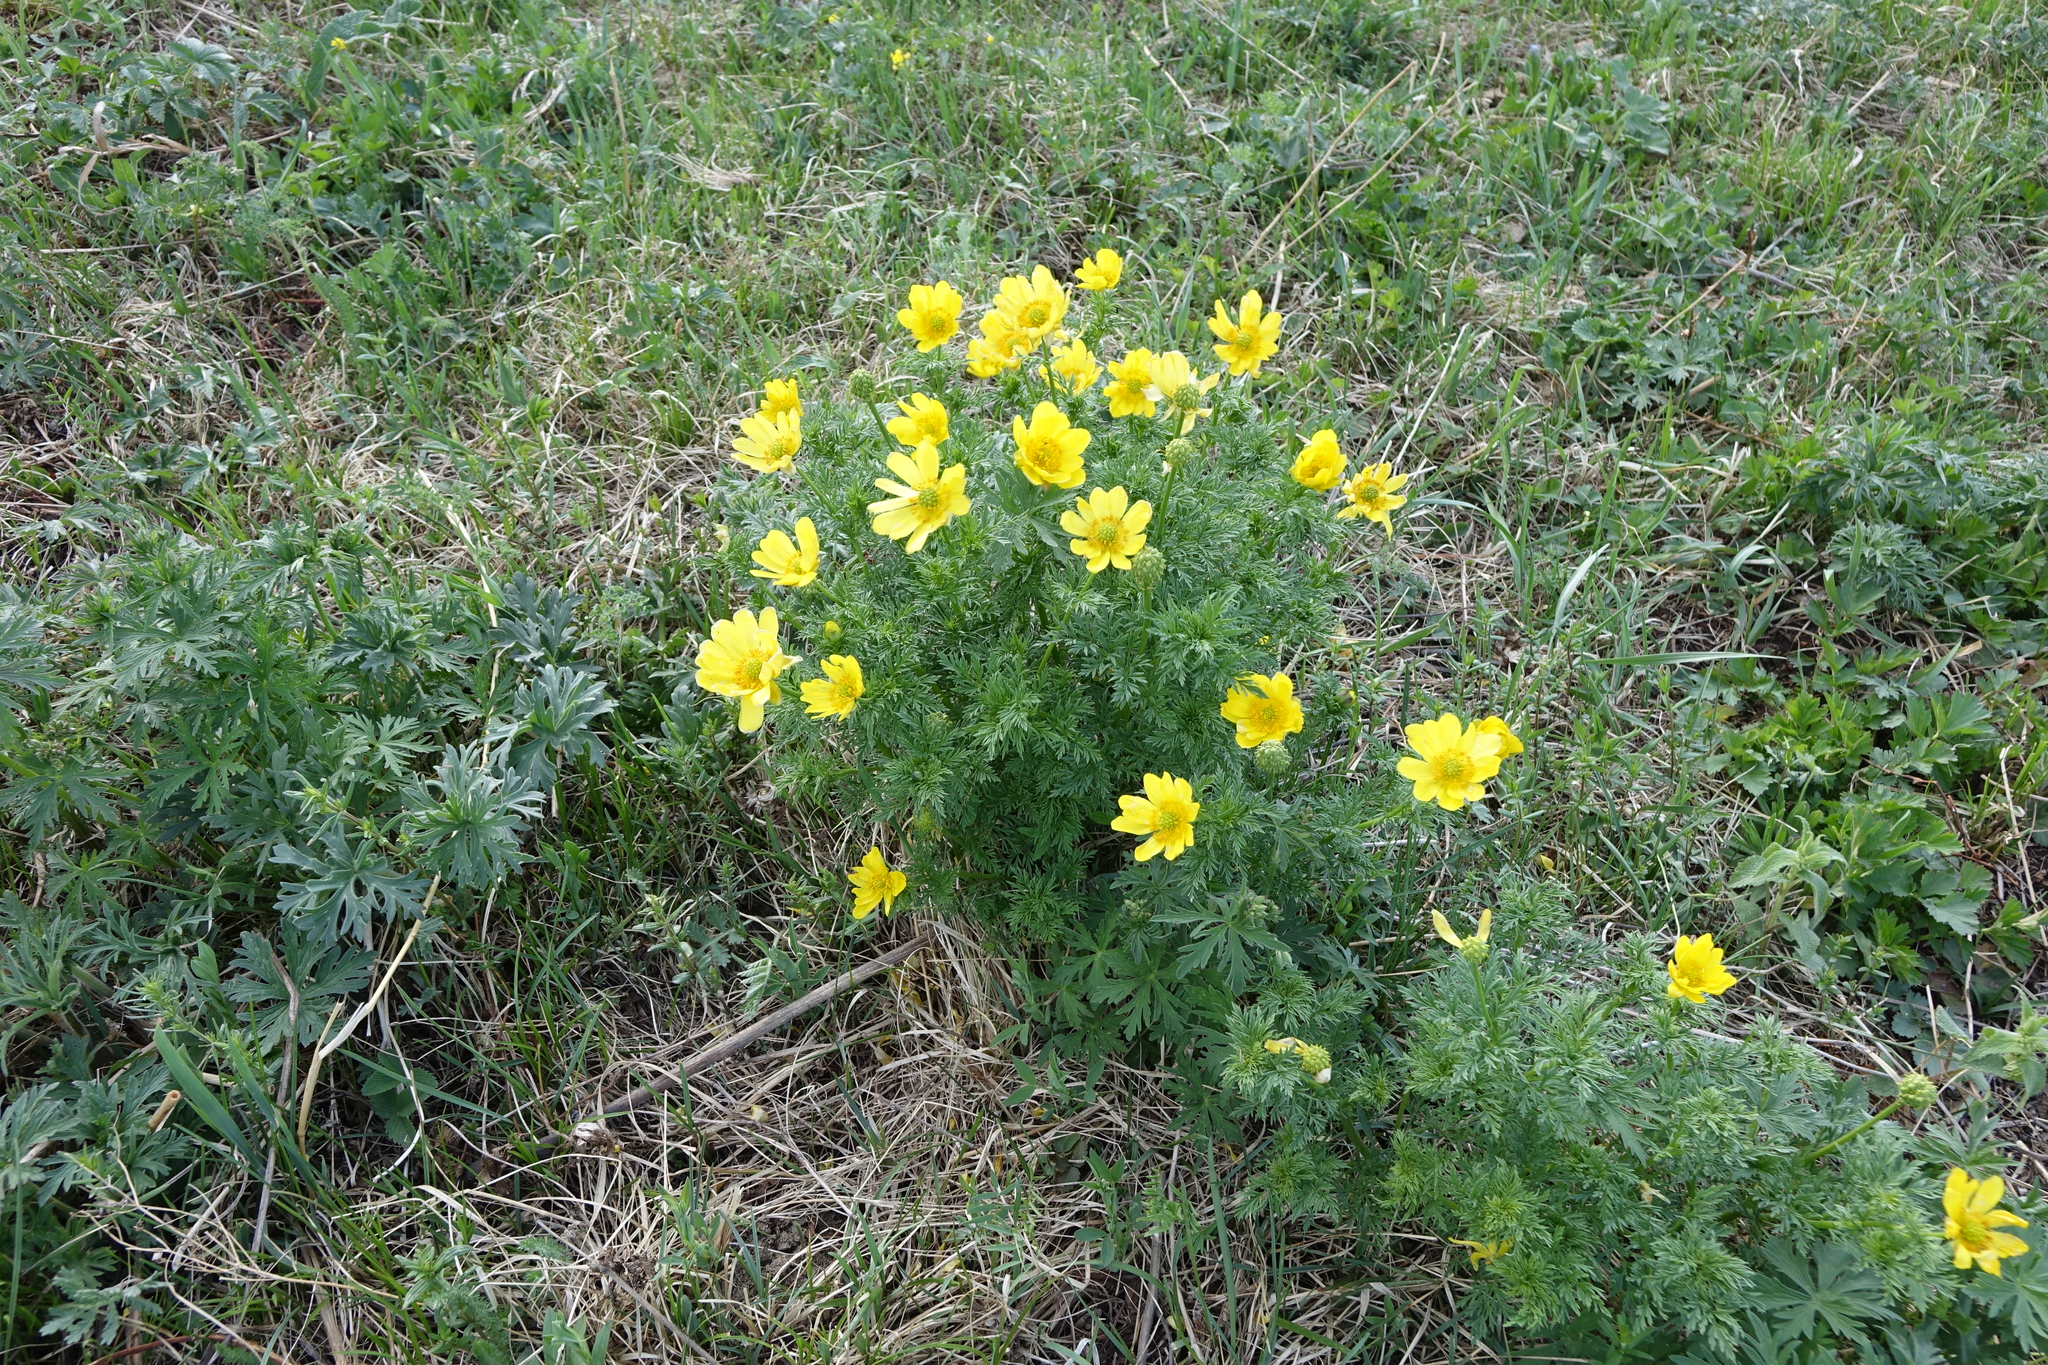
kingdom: Plantae
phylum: Tracheophyta
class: Magnoliopsida
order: Ranunculales
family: Ranunculaceae
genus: Adonis
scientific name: Adonis
